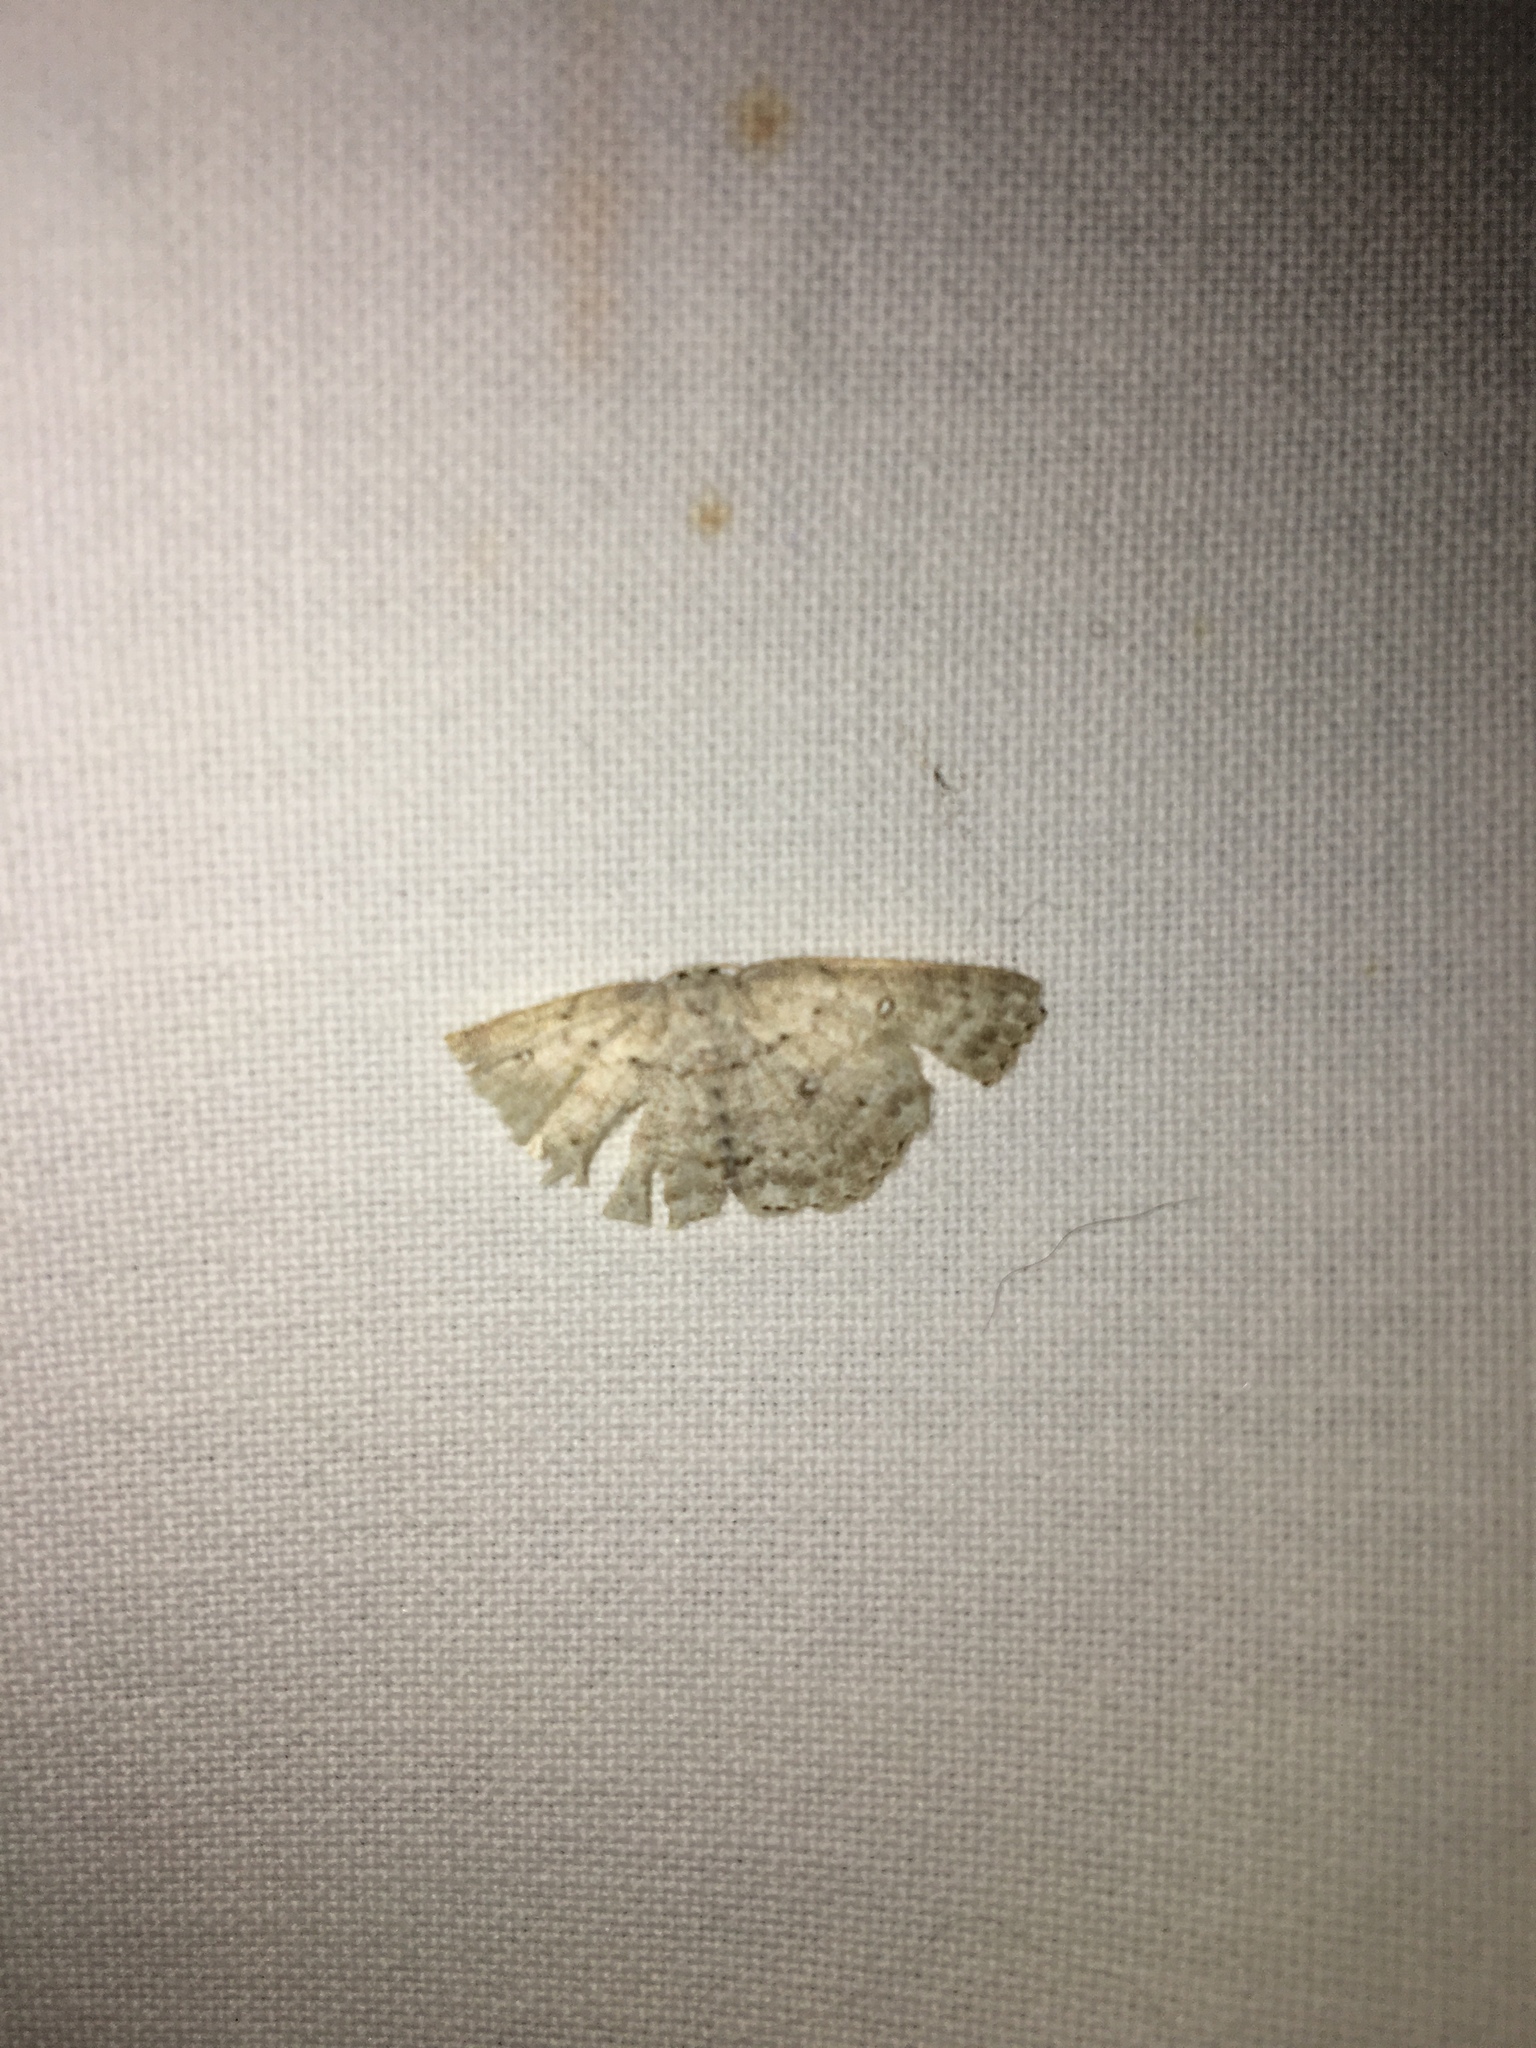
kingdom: Animalia
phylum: Arthropoda
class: Insecta
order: Lepidoptera
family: Geometridae
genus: Cyclophora
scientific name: Cyclophora pendulinaria
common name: Sweet fern geometer
